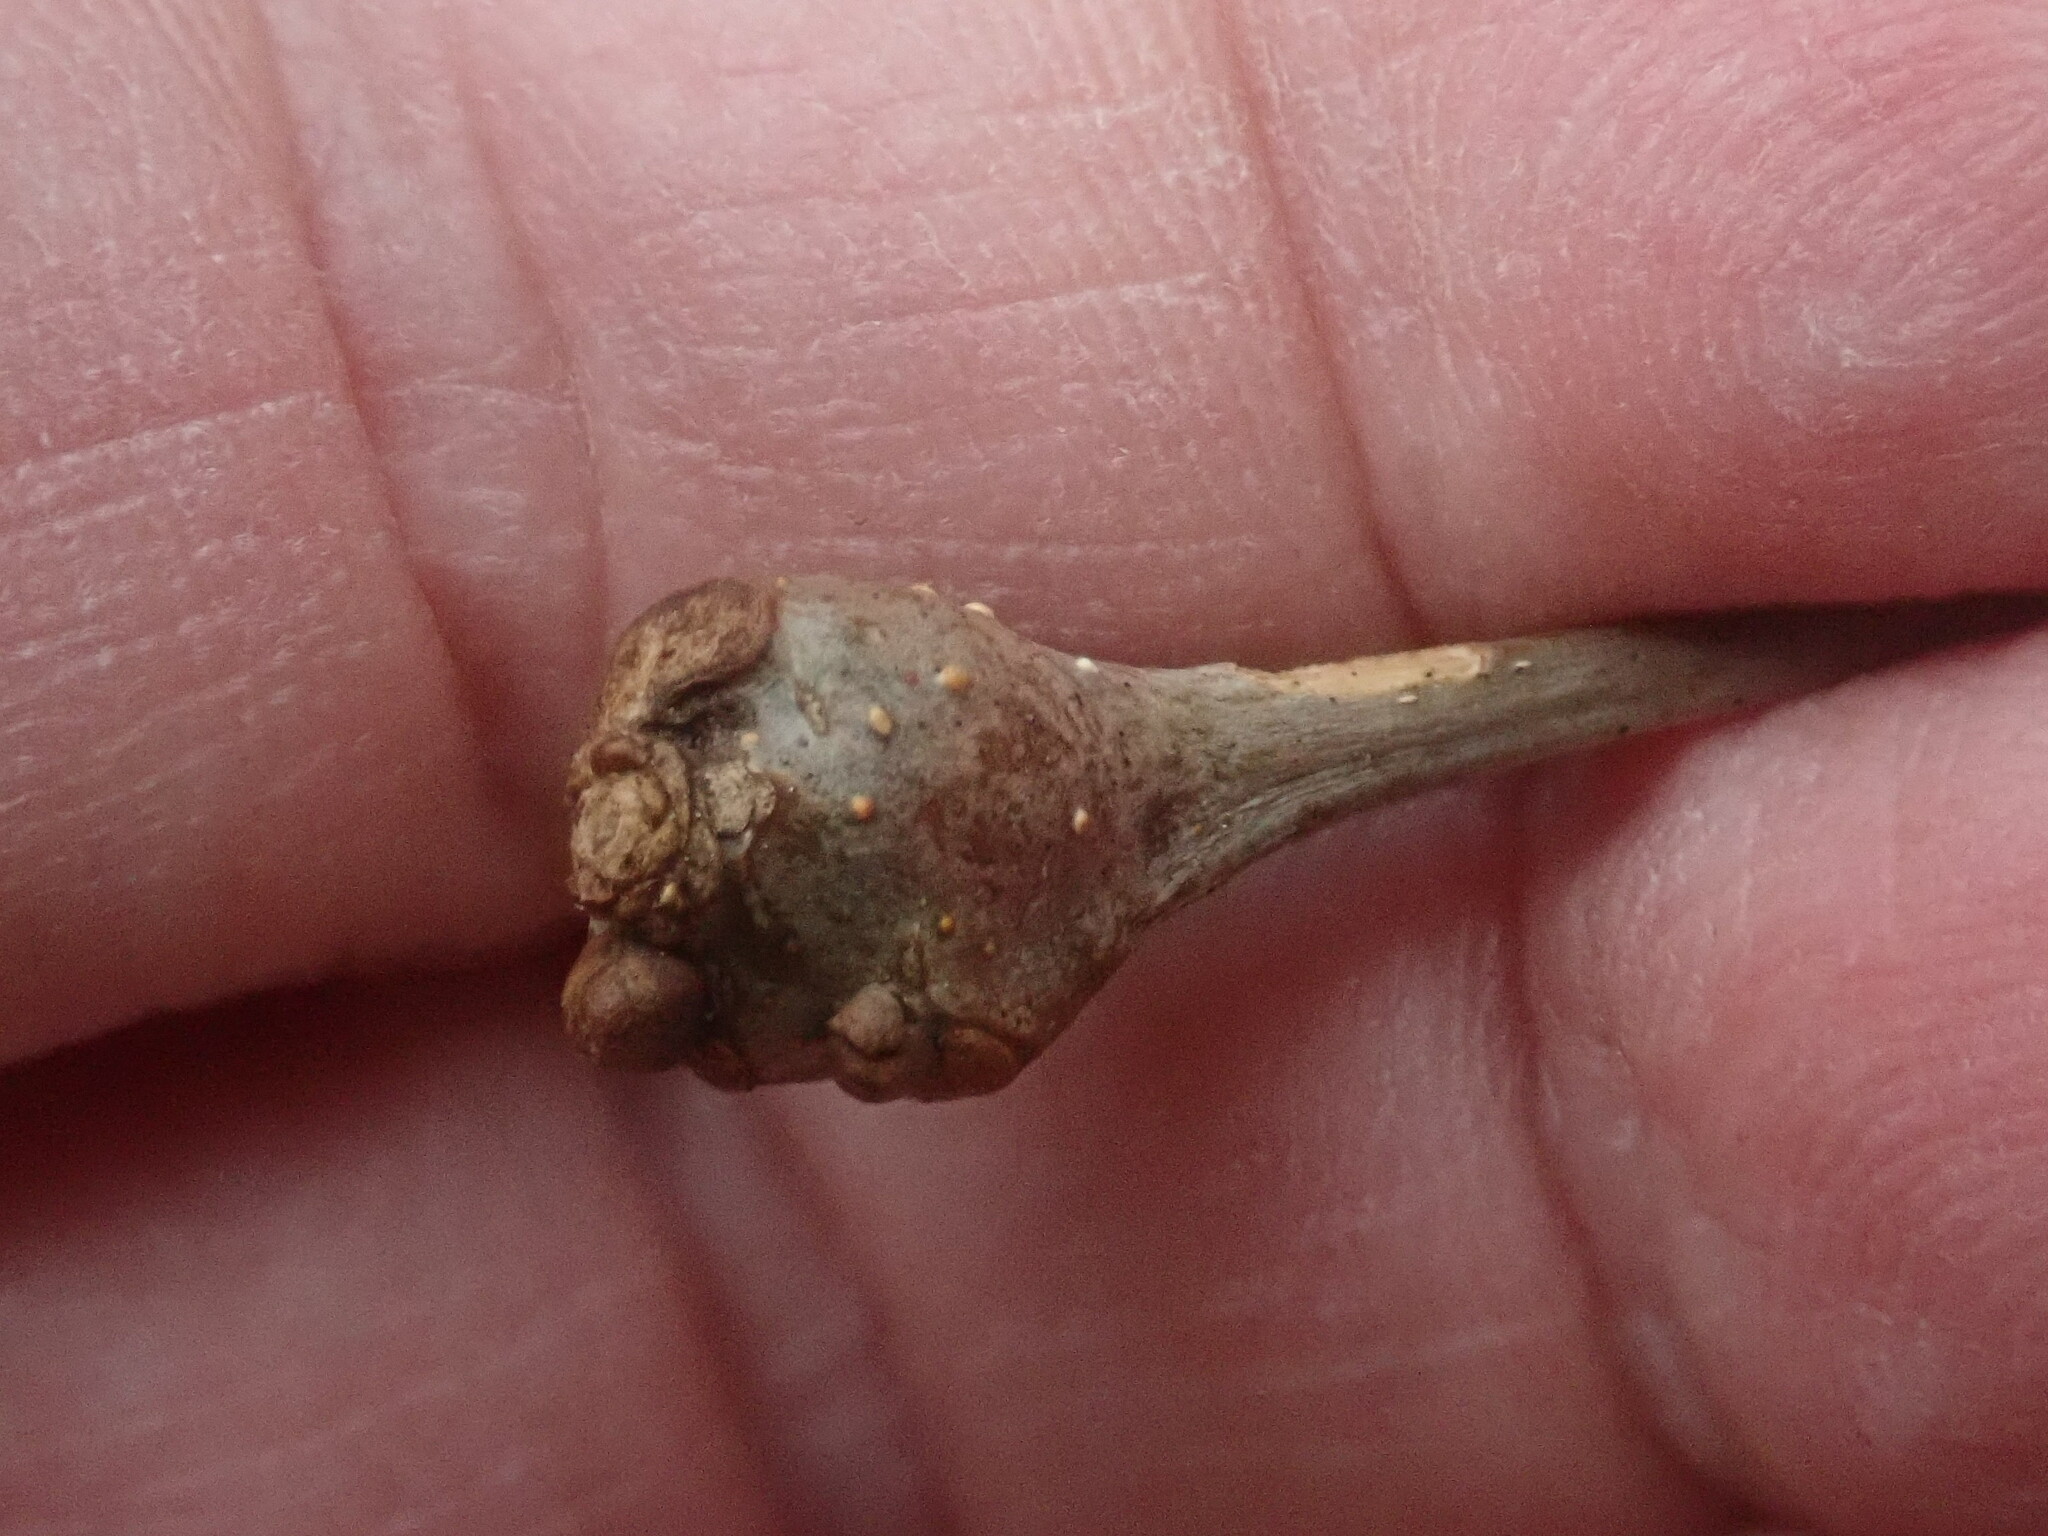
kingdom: Animalia
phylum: Arthropoda
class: Insecta
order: Hymenoptera
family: Cynipidae
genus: Callirhytis
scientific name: Callirhytis clavula
